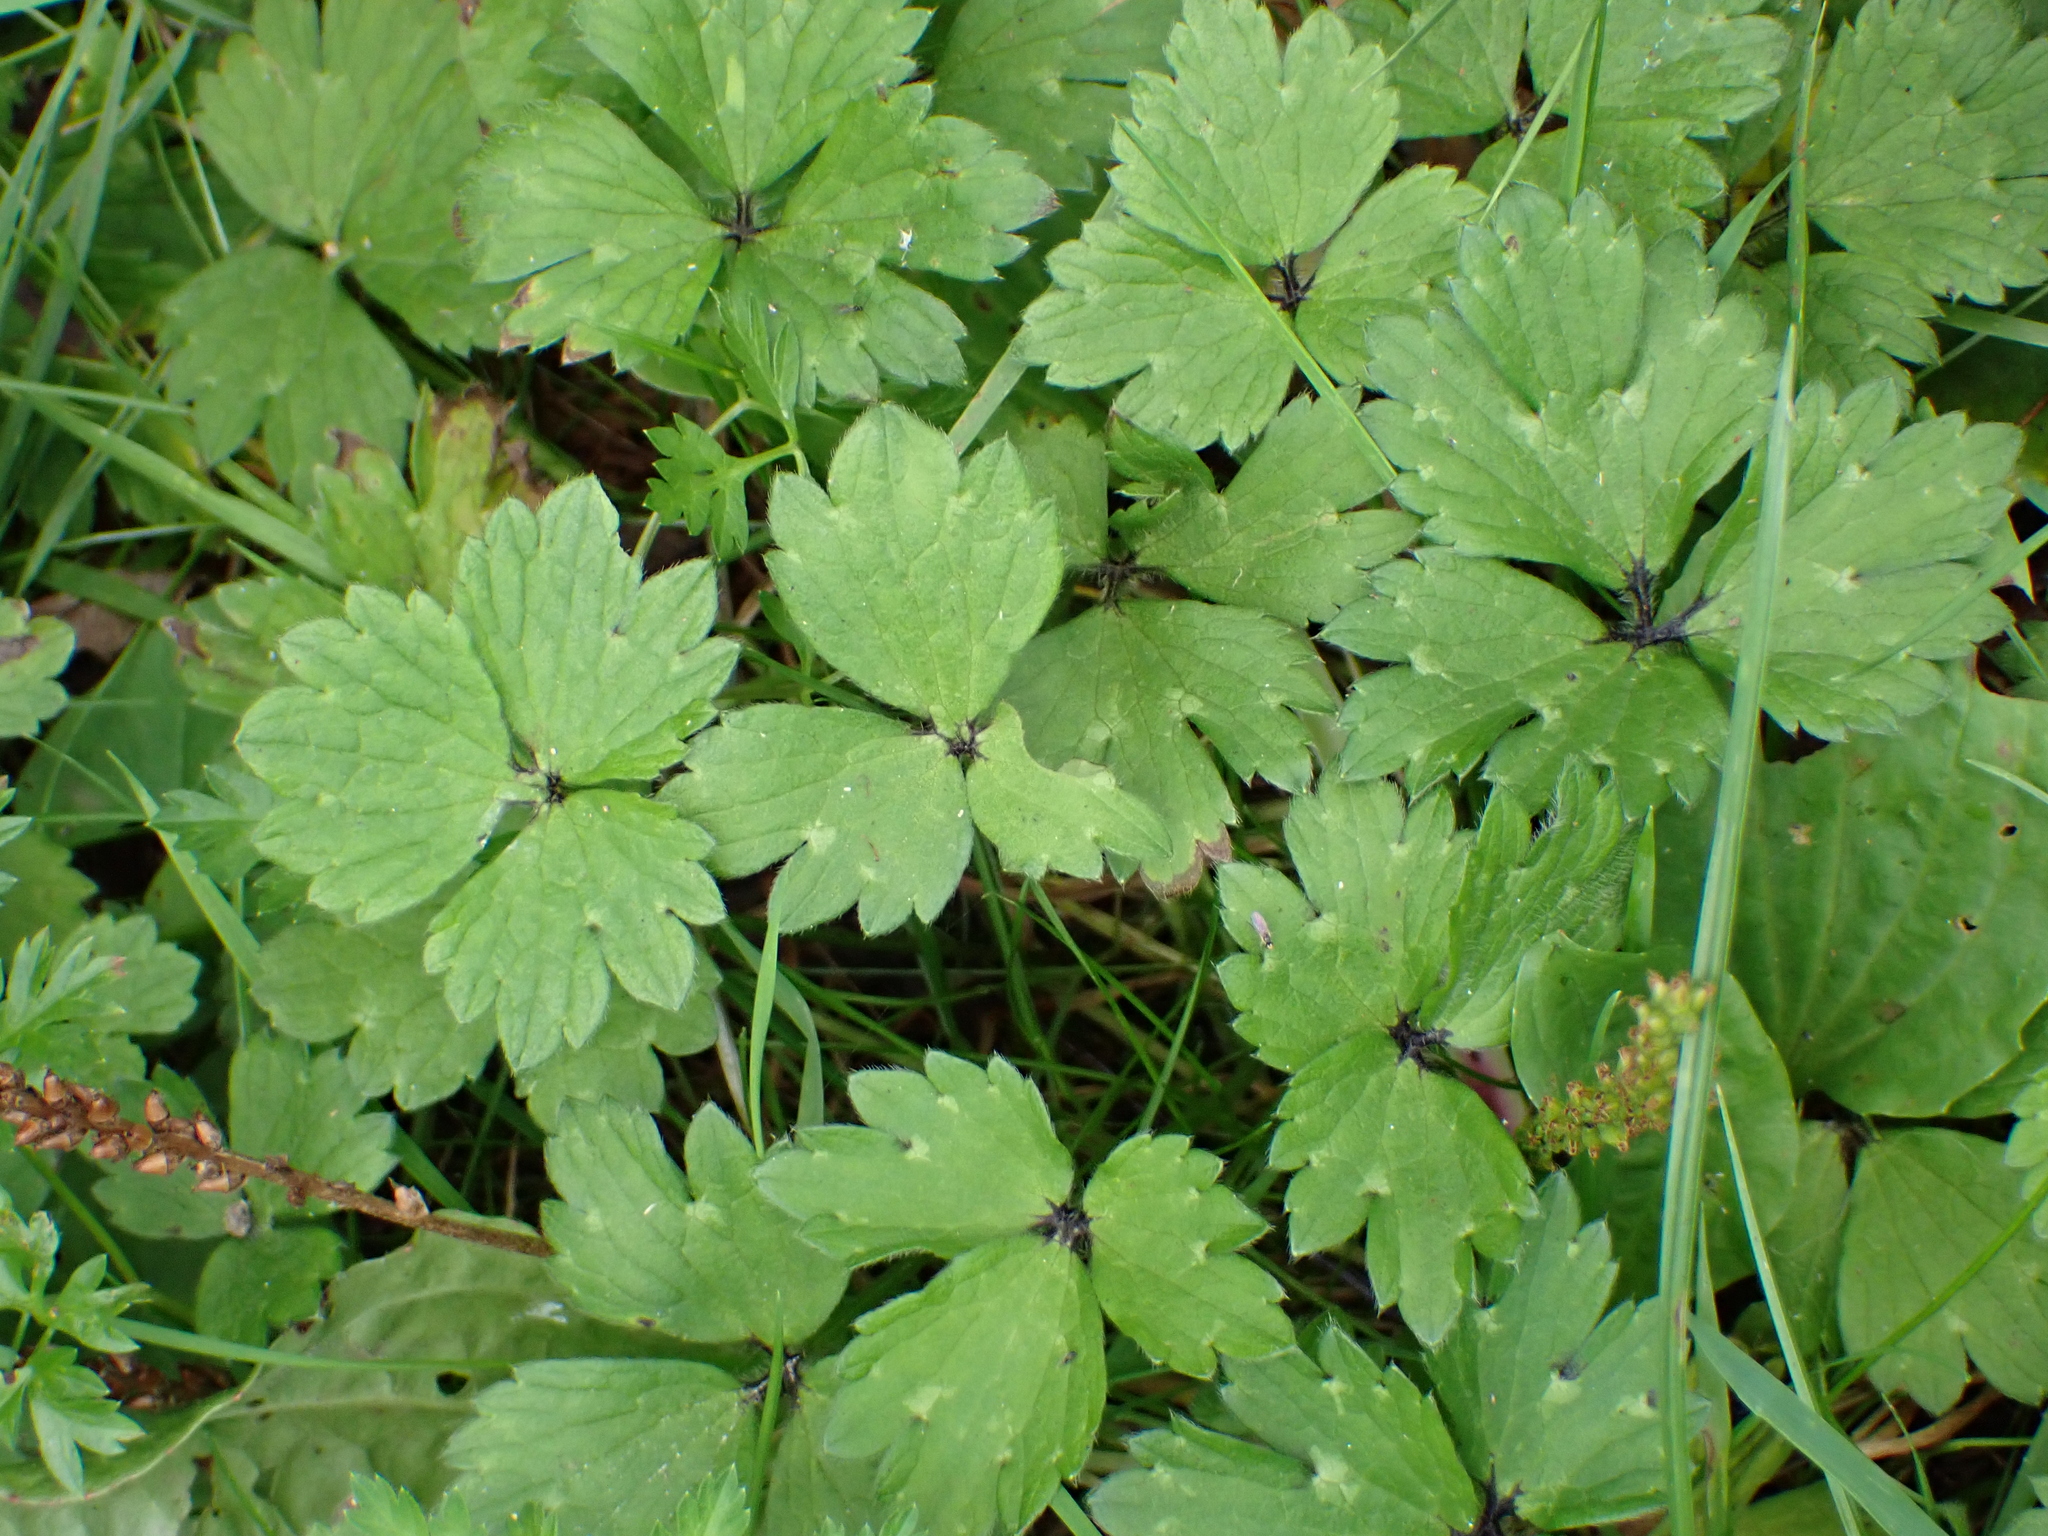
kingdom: Plantae
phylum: Tracheophyta
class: Magnoliopsida
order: Ranunculales
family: Ranunculaceae
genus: Ranunculus
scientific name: Ranunculus repens
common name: Creeping buttercup
